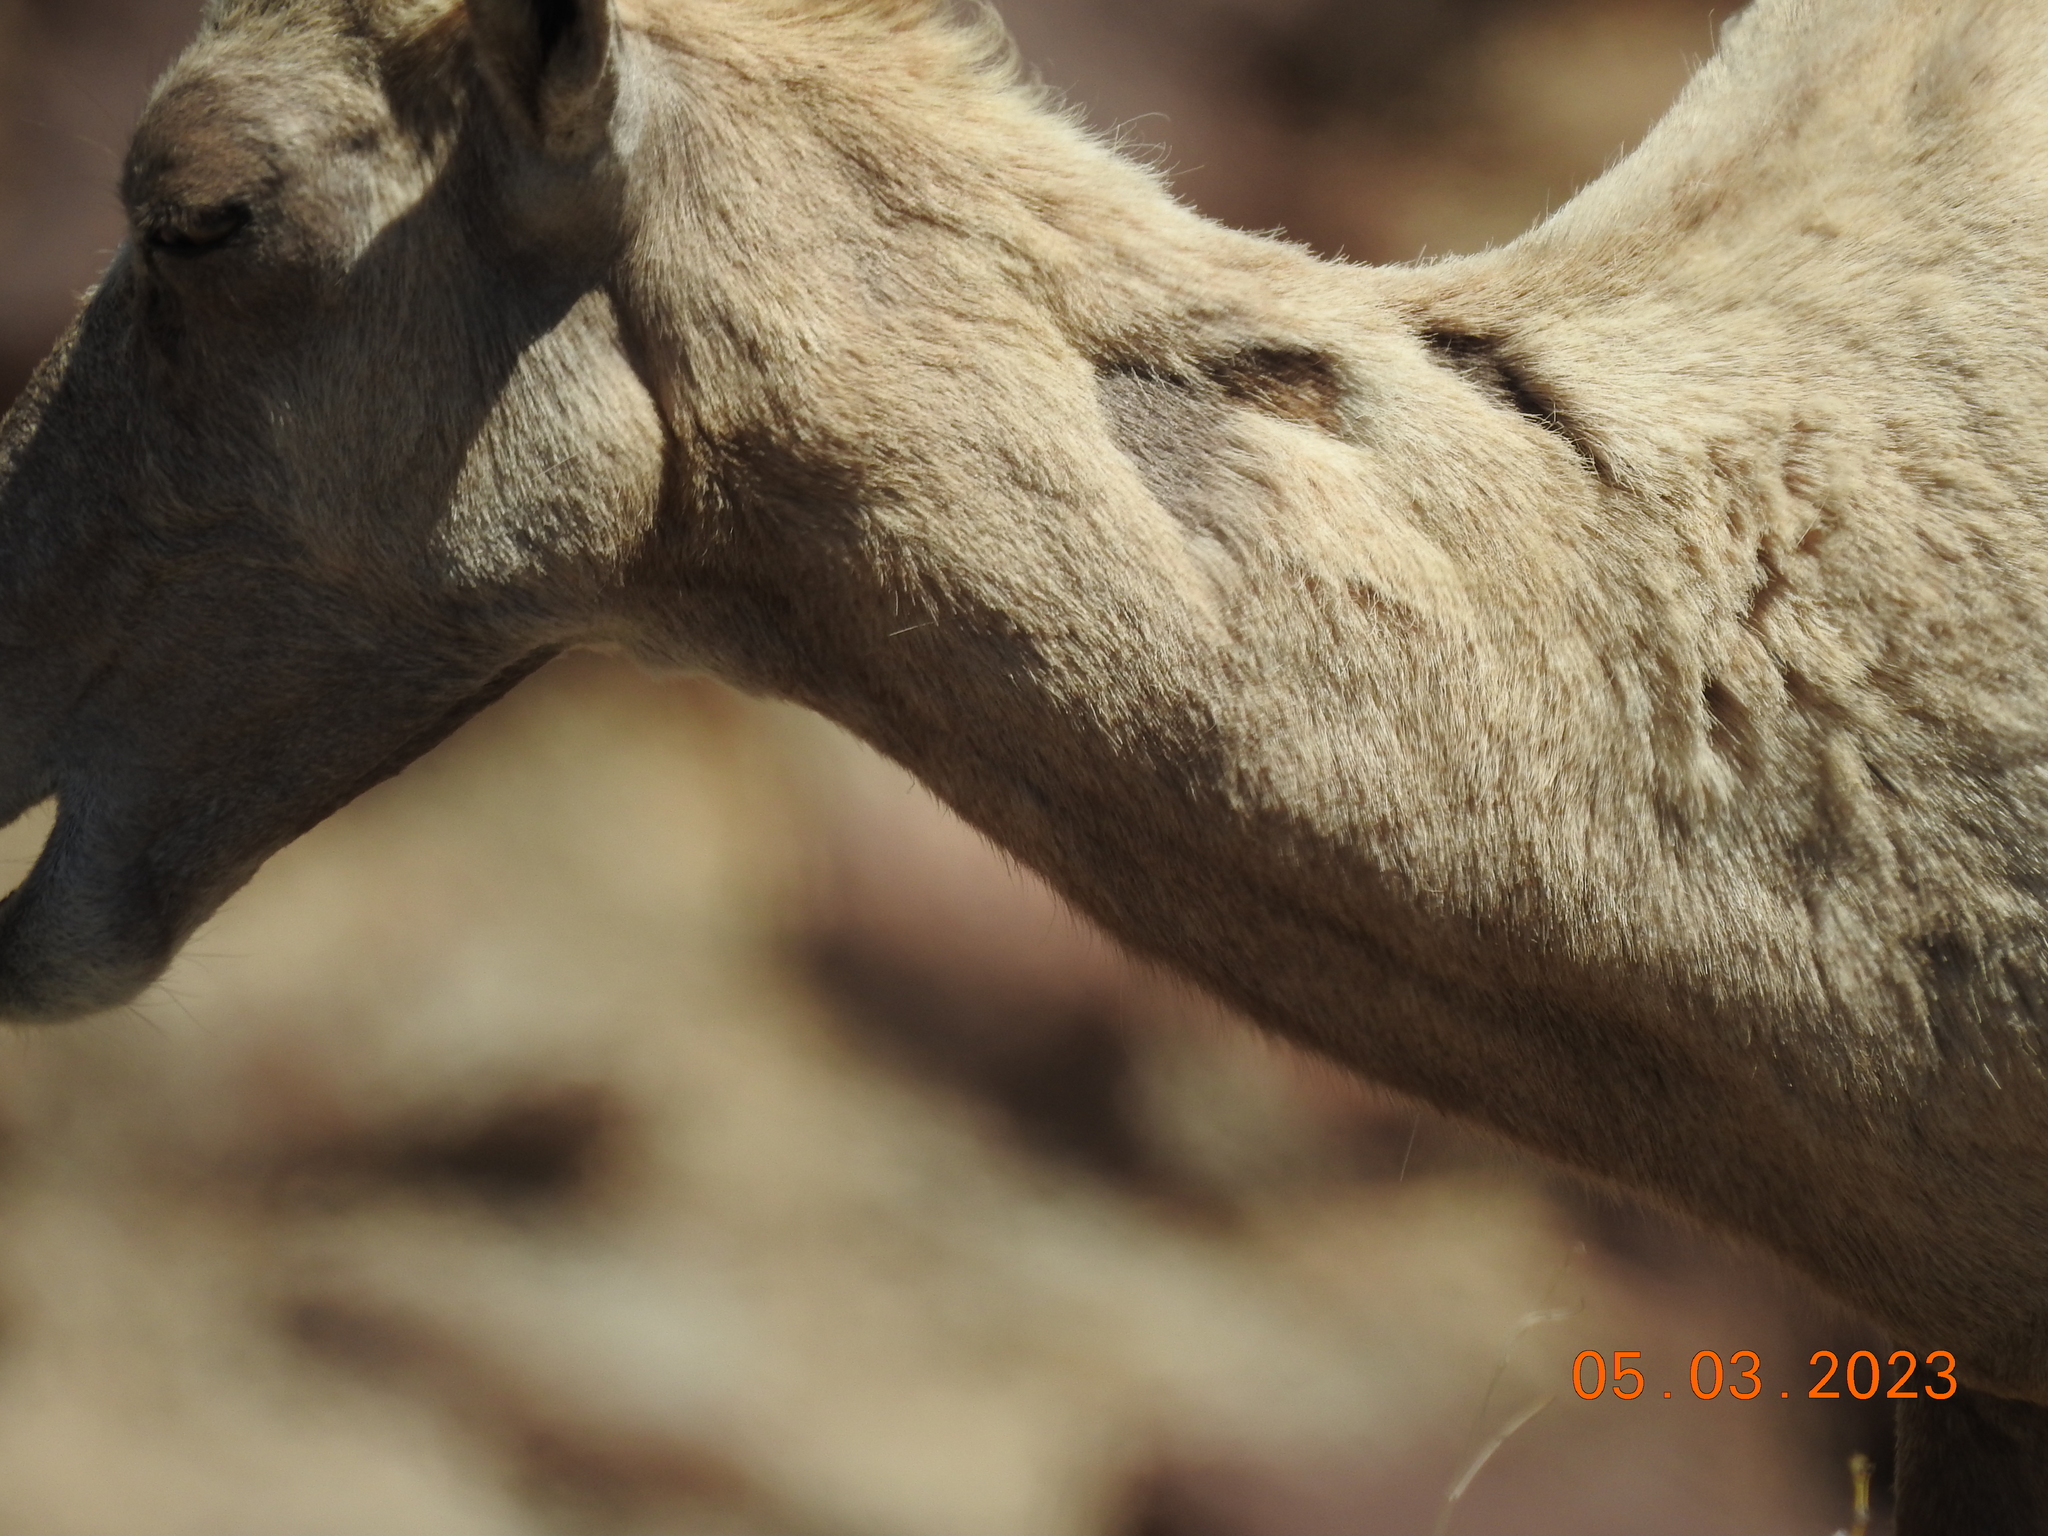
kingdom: Animalia
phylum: Chordata
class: Mammalia
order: Artiodactyla
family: Bovidae
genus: Ovis
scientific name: Ovis canadensis
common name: Bighorn sheep
